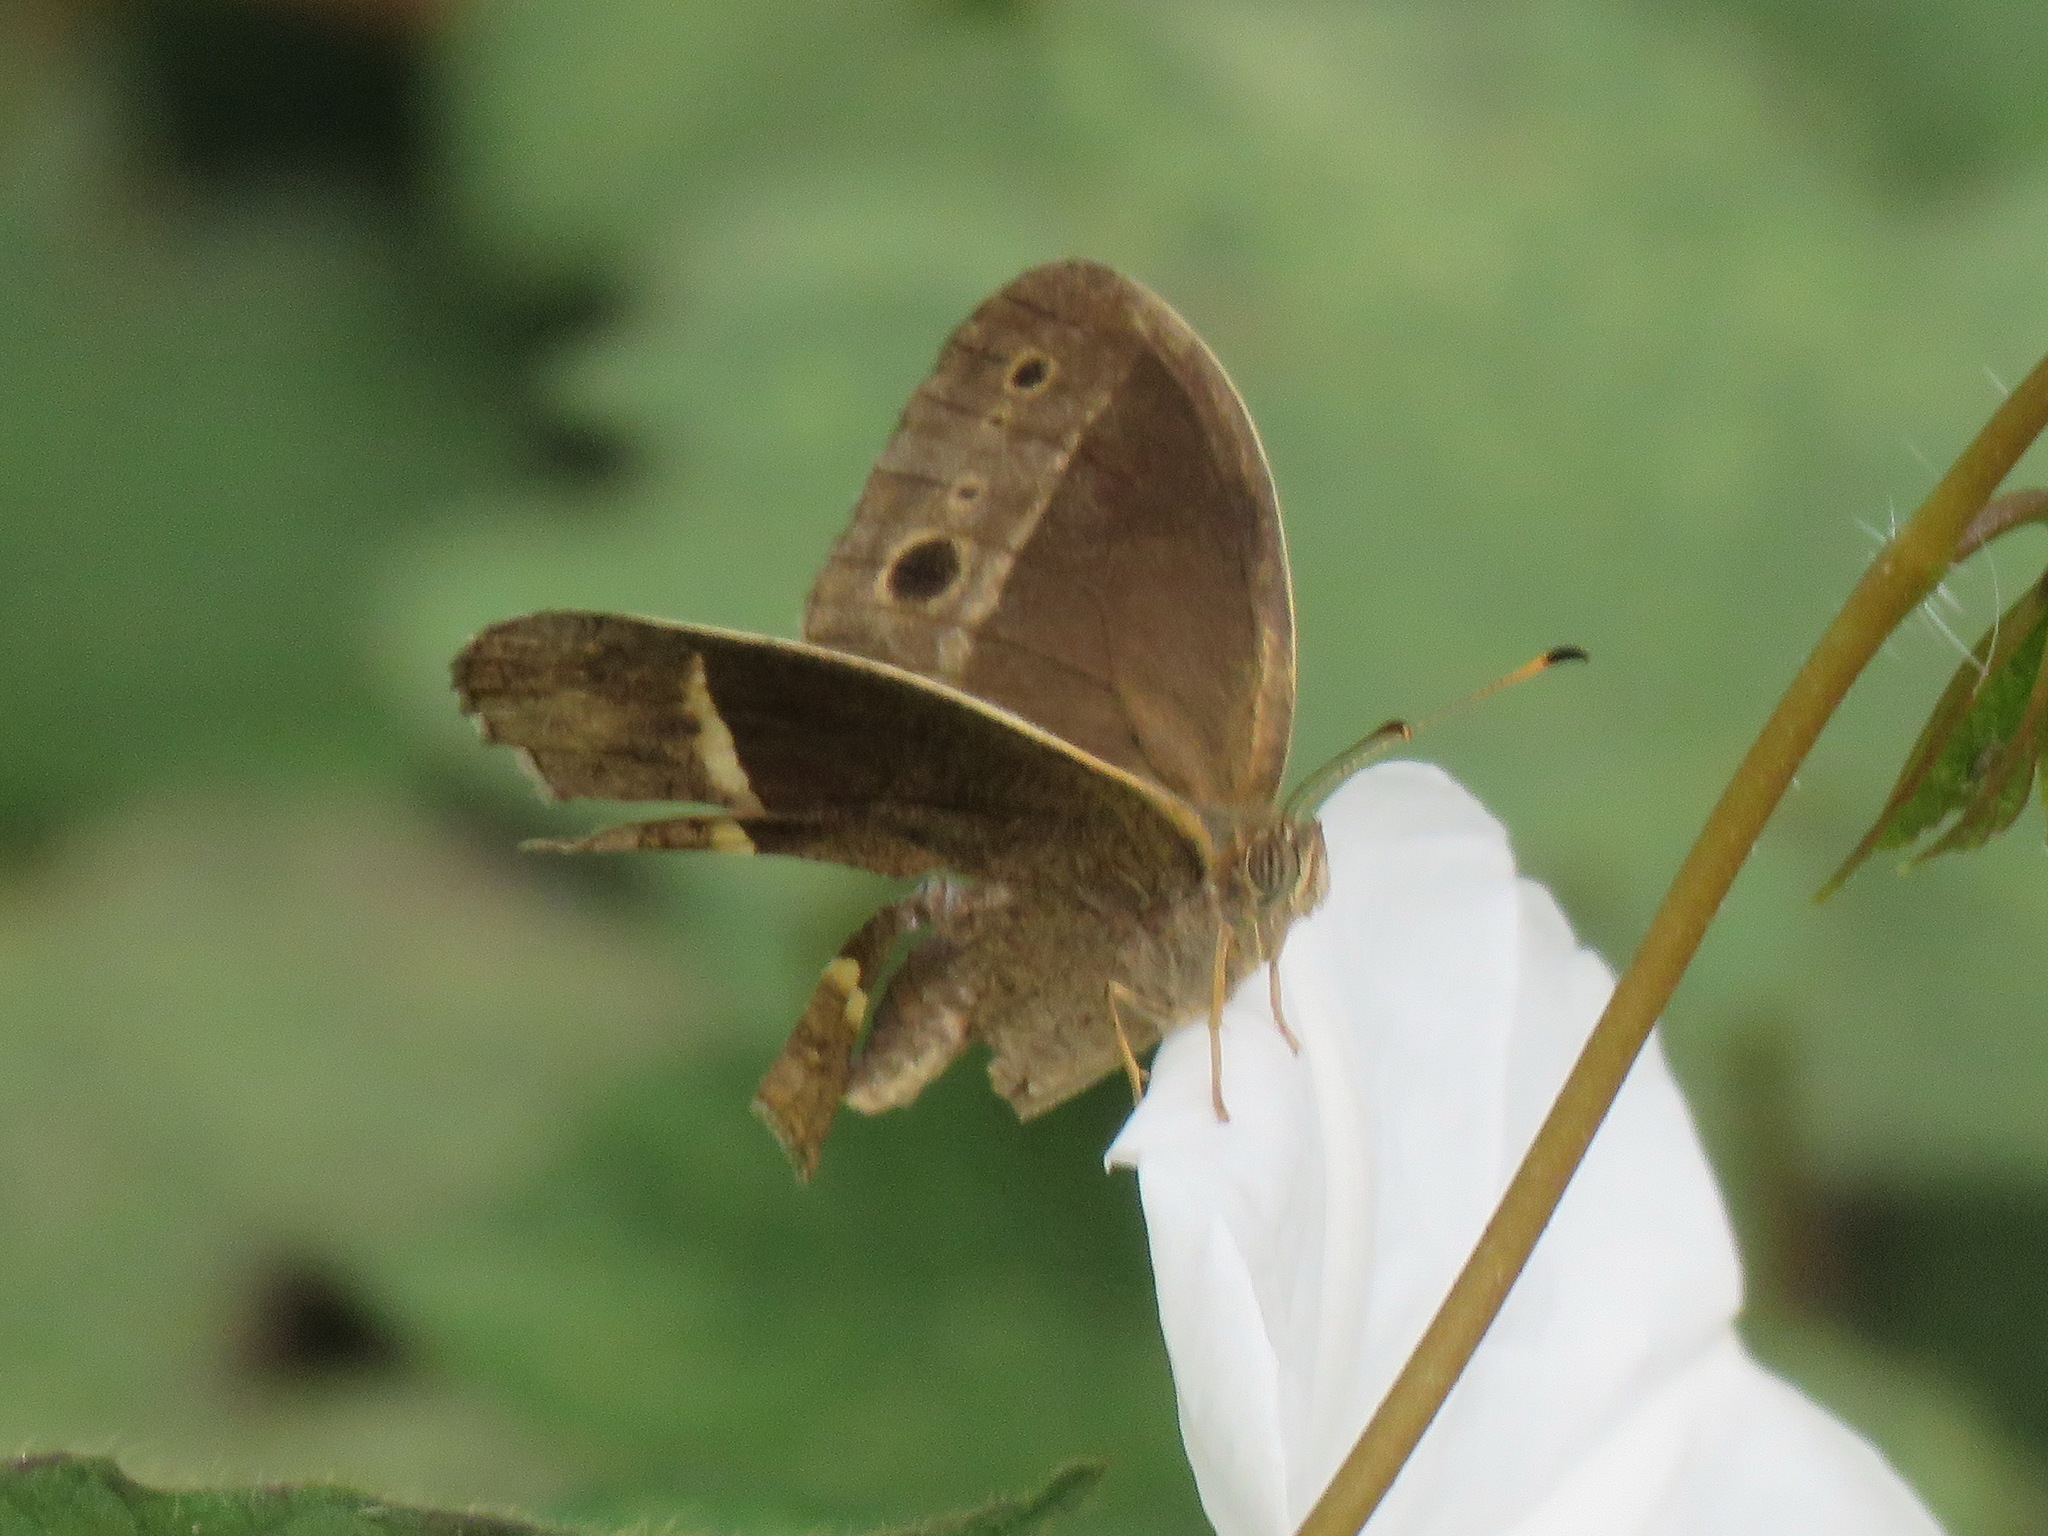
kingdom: Animalia
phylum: Arthropoda
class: Insecta
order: Lepidoptera
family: Nymphalidae
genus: Mycalesis
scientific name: Mycalesis Telinga malsara
